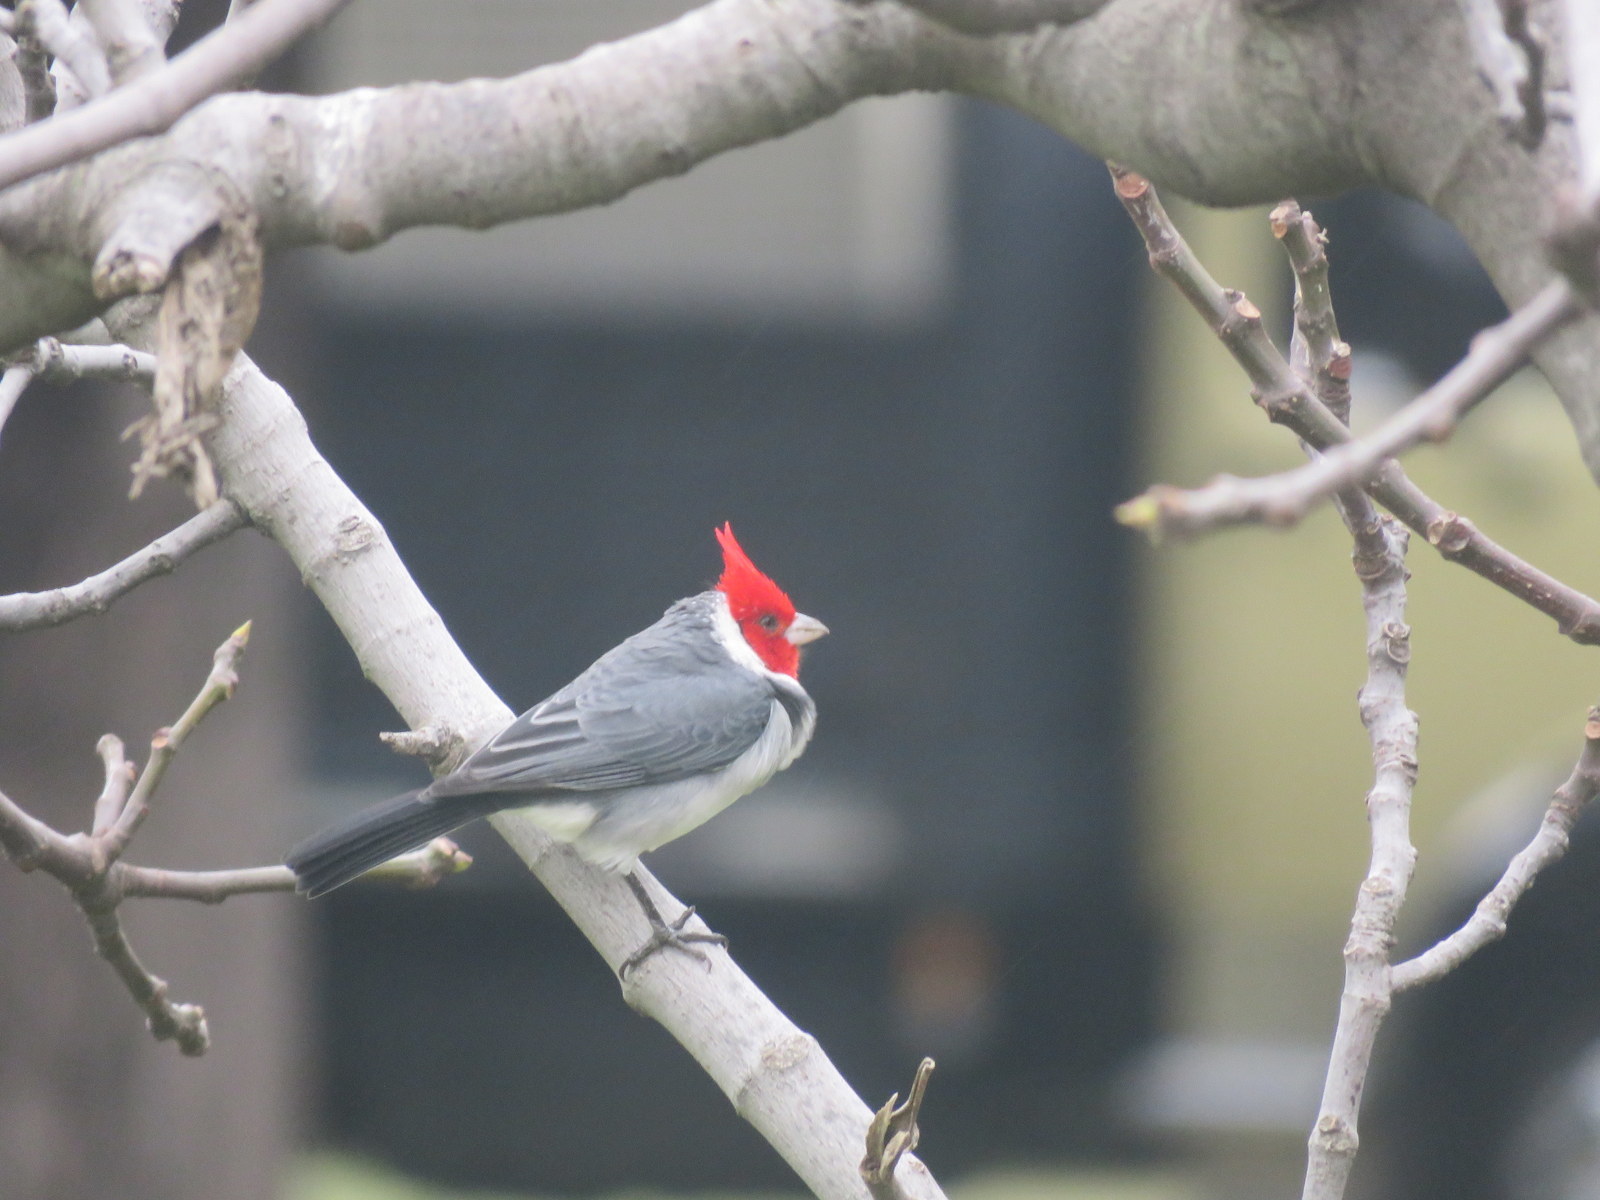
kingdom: Animalia
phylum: Chordata
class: Aves
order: Passeriformes
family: Thraupidae
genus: Paroaria
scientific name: Paroaria coronata
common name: Red-crested cardinal
